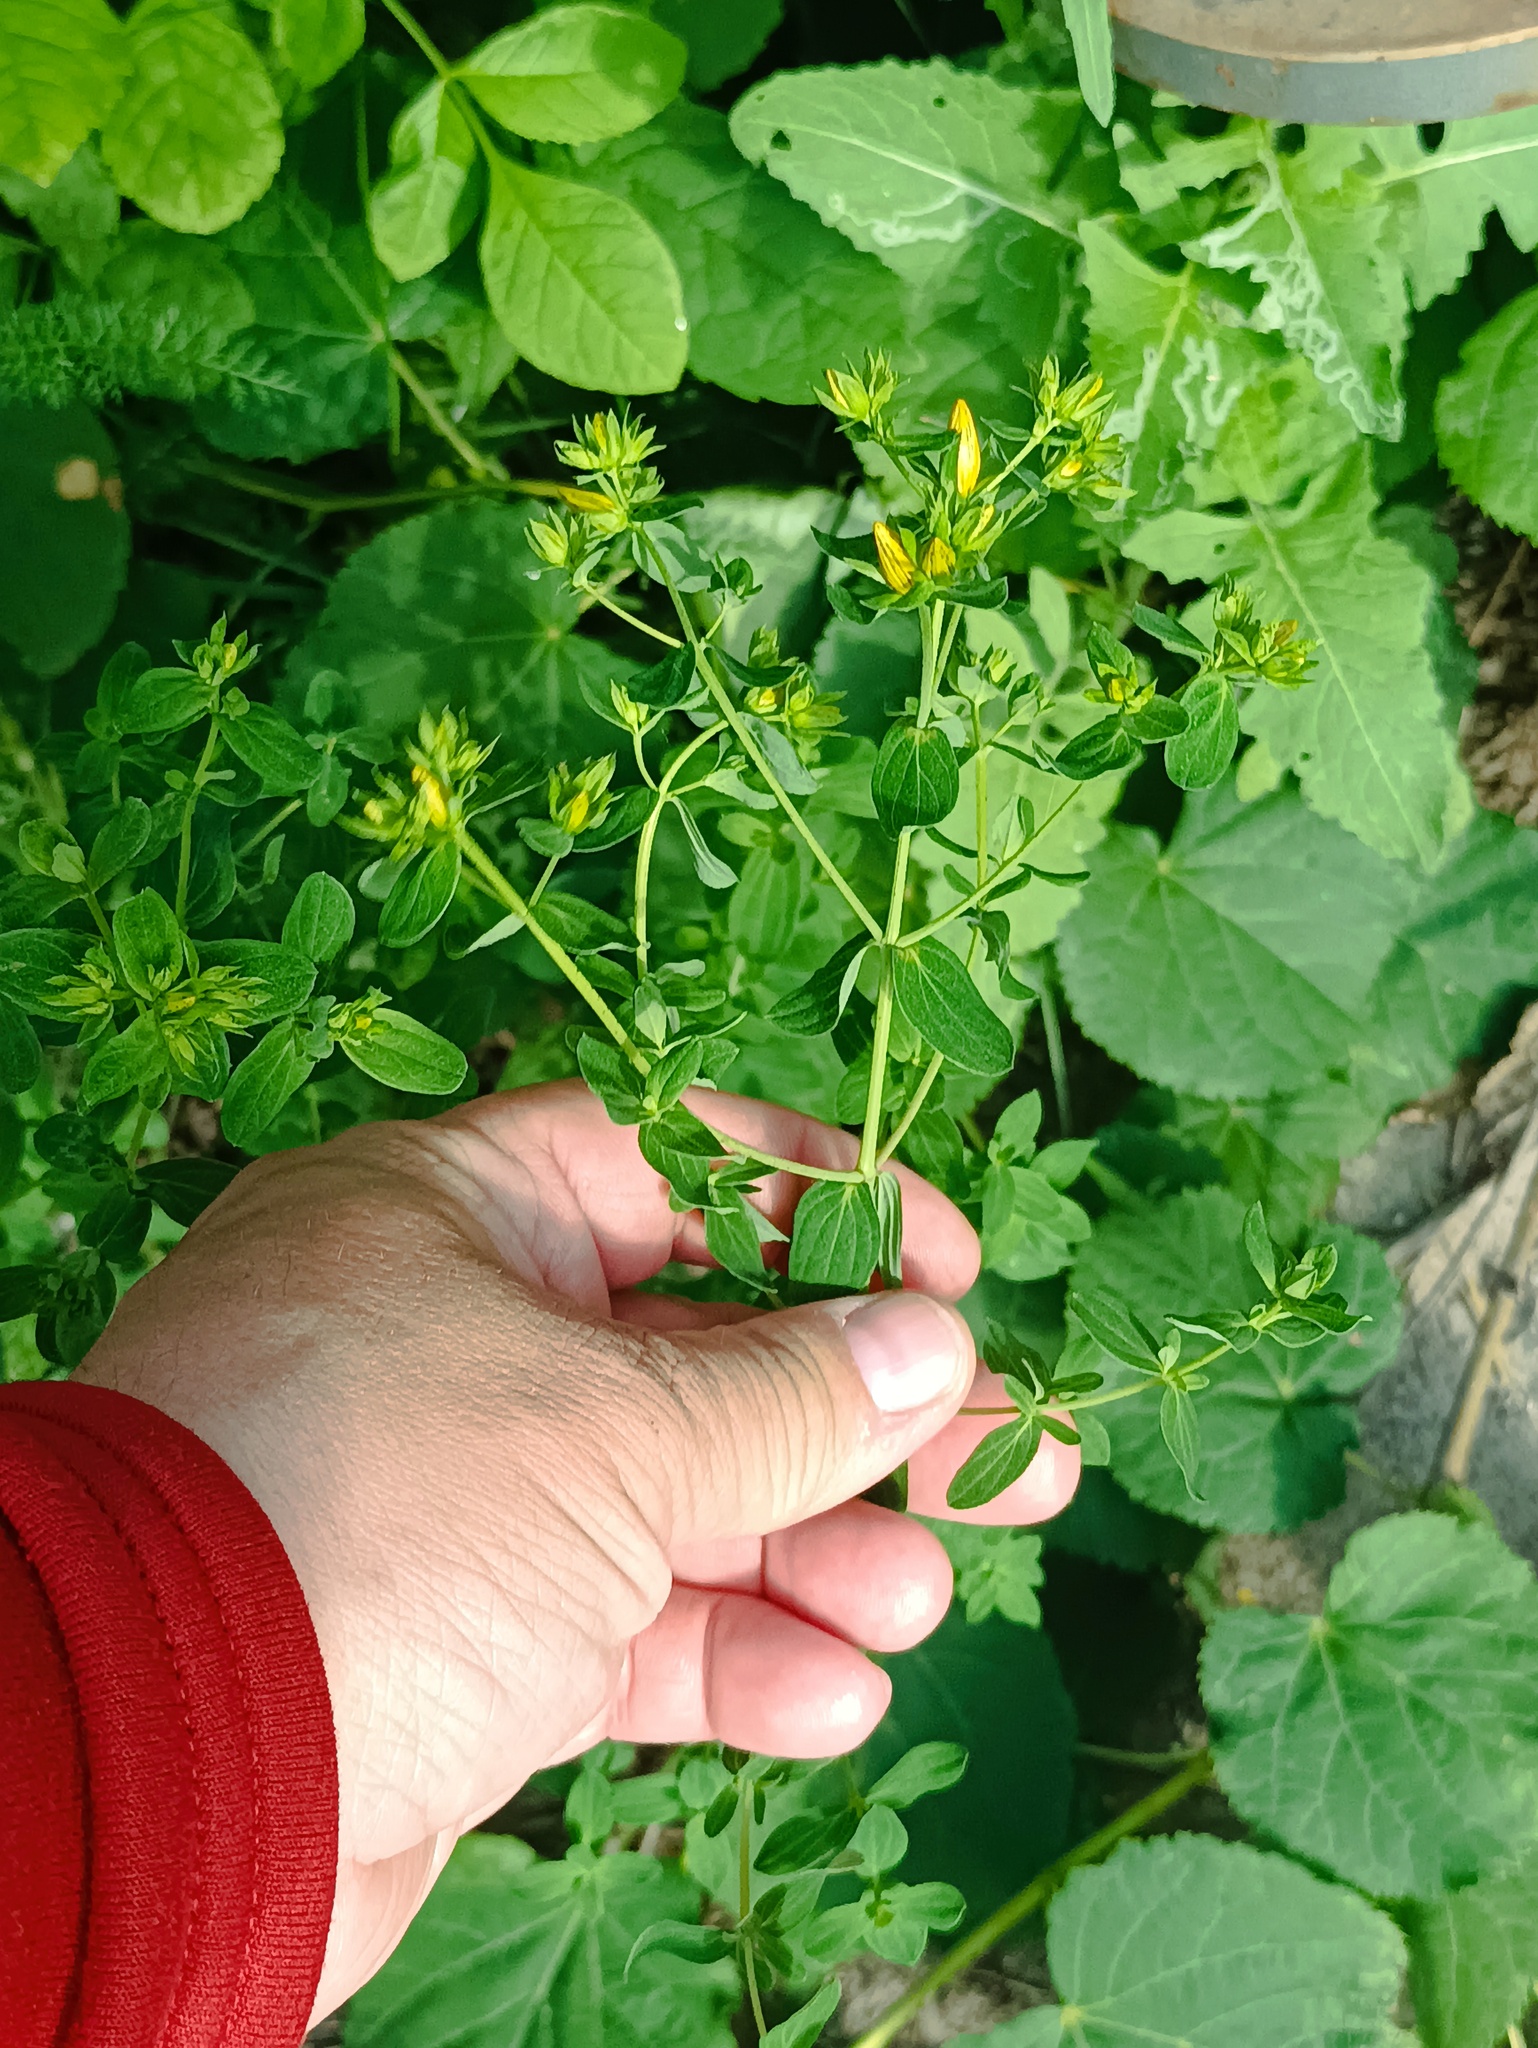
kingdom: Plantae
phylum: Tracheophyta
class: Magnoliopsida
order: Malpighiales
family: Hypericaceae
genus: Hypericum
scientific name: Hypericum perforatum
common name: Common st. johnswort
